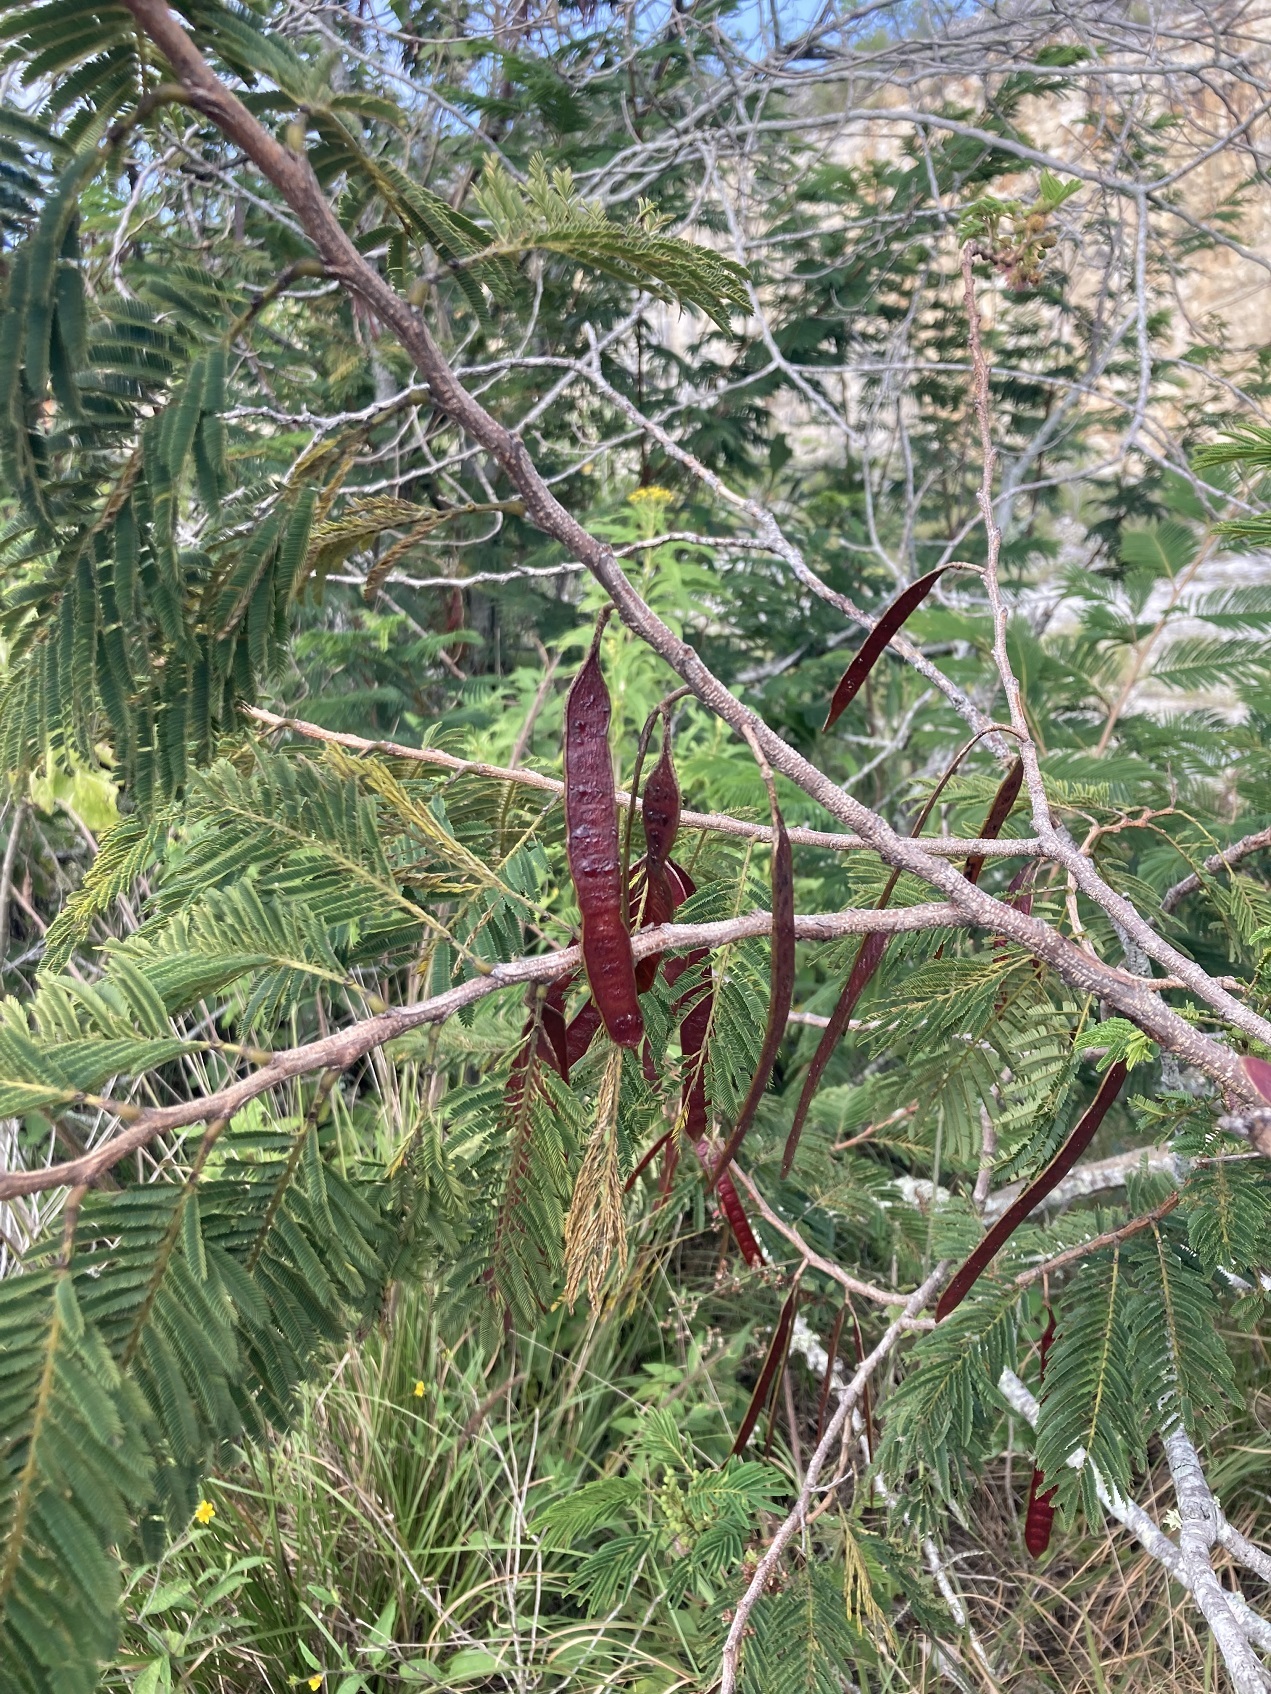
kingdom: Plantae
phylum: Tracheophyta
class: Magnoliopsida
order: Fabales
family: Fabaceae
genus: Leucaena
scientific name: Leucaena collinsii
